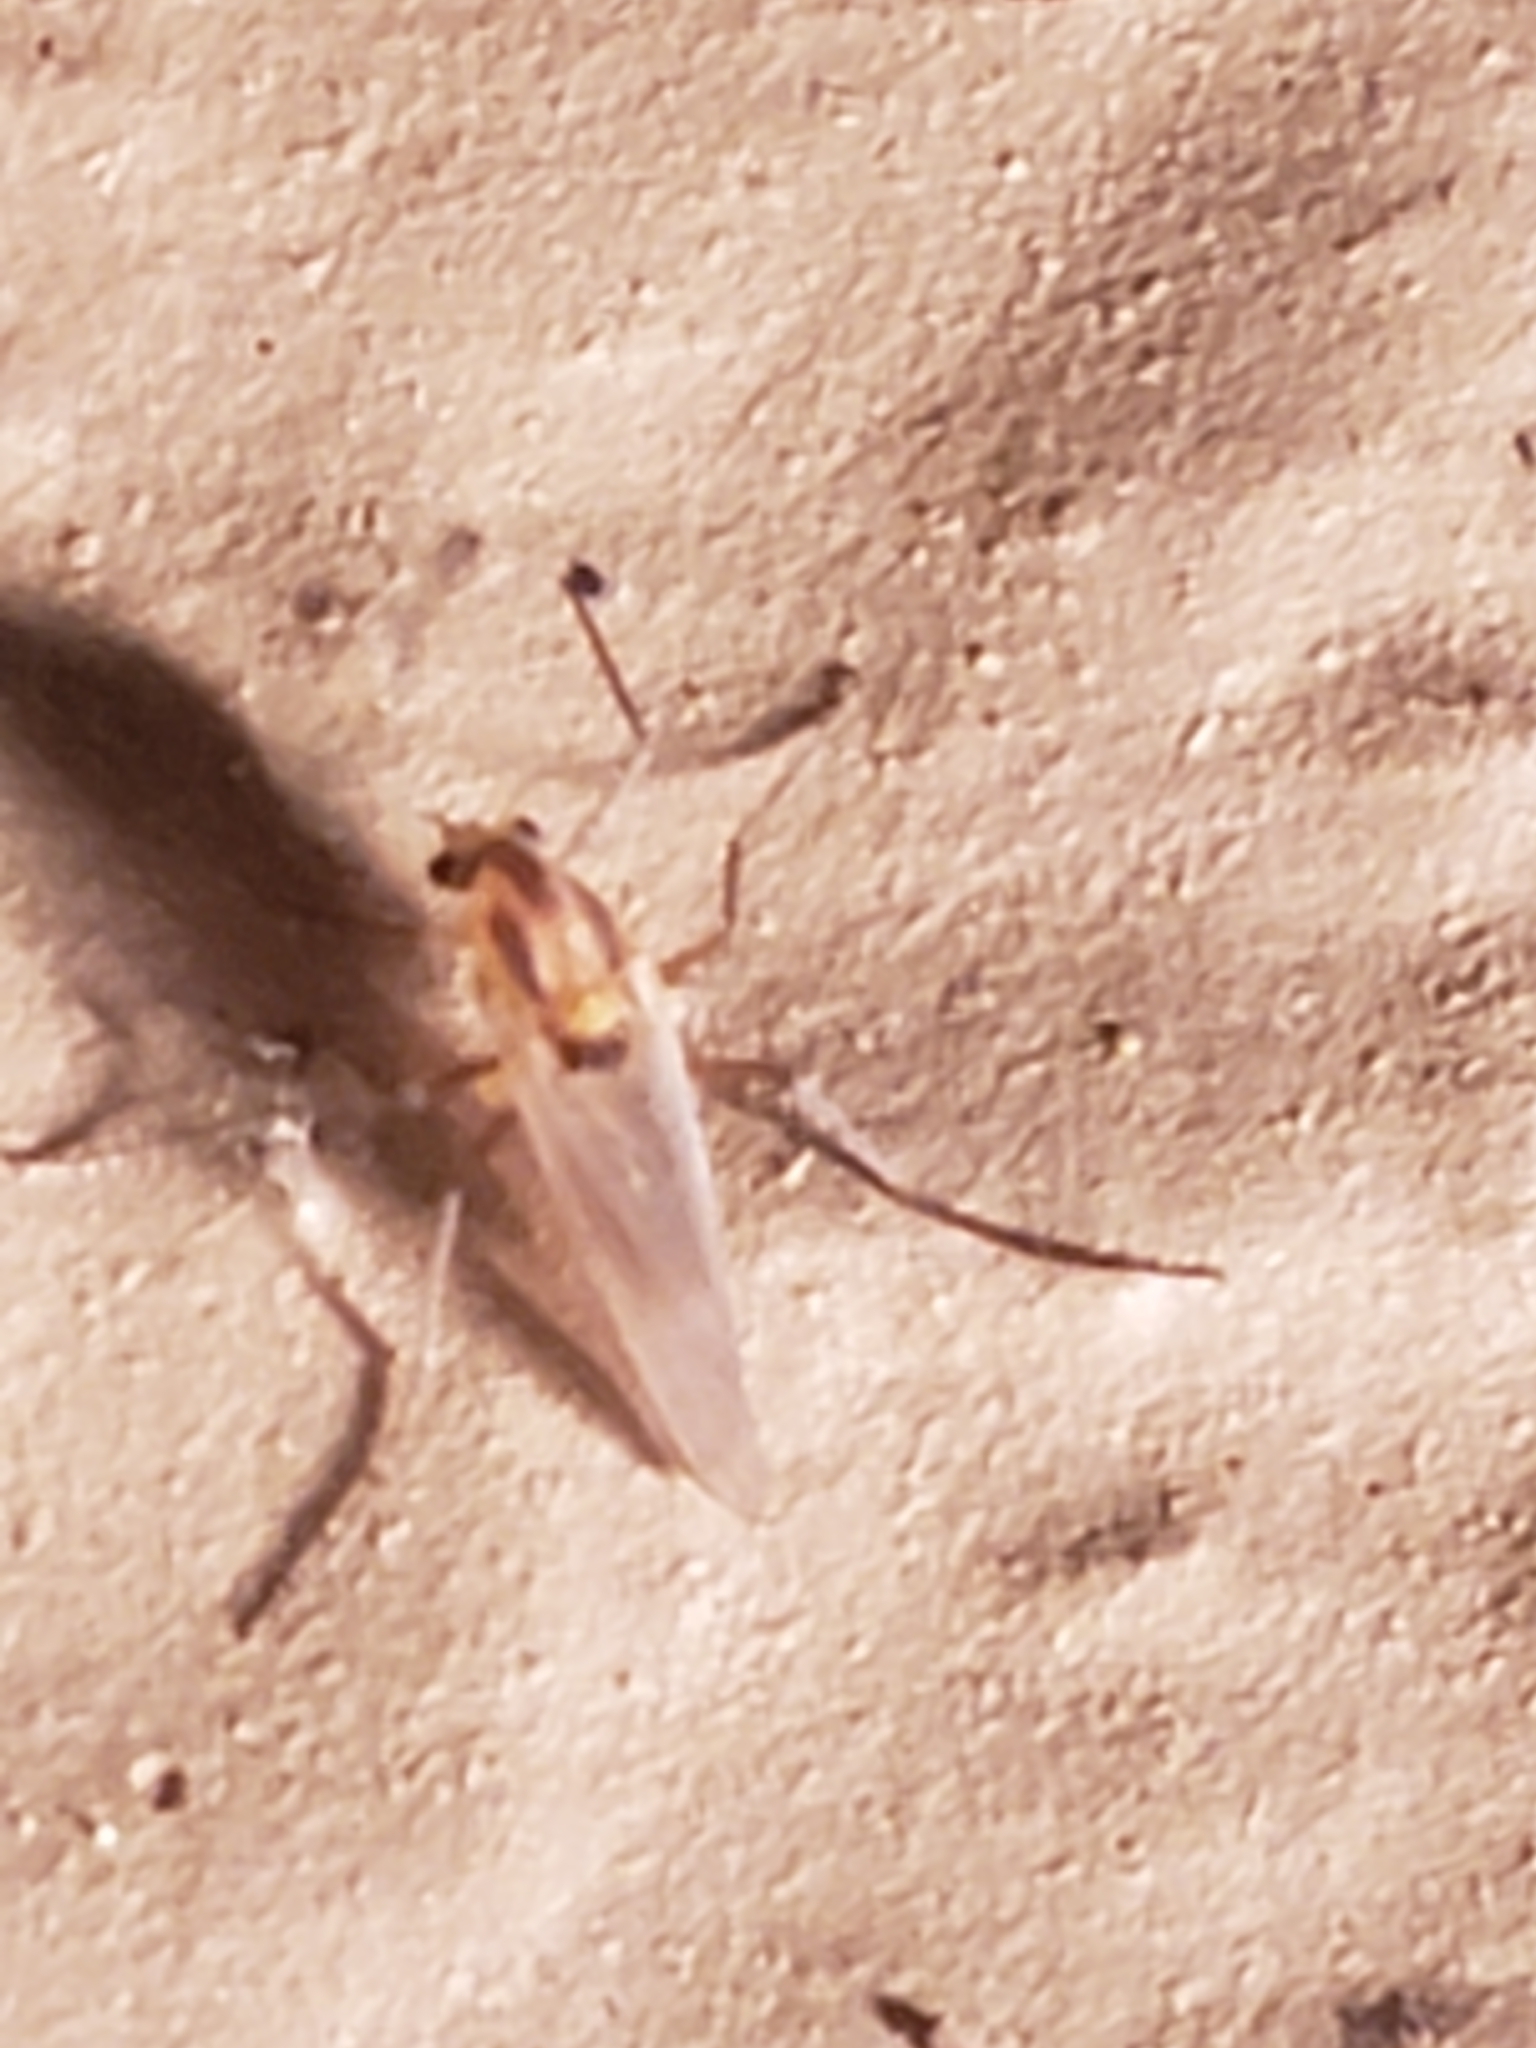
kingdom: Animalia
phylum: Arthropoda
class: Insecta
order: Diptera
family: Chironomidae
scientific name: Chironomidae
